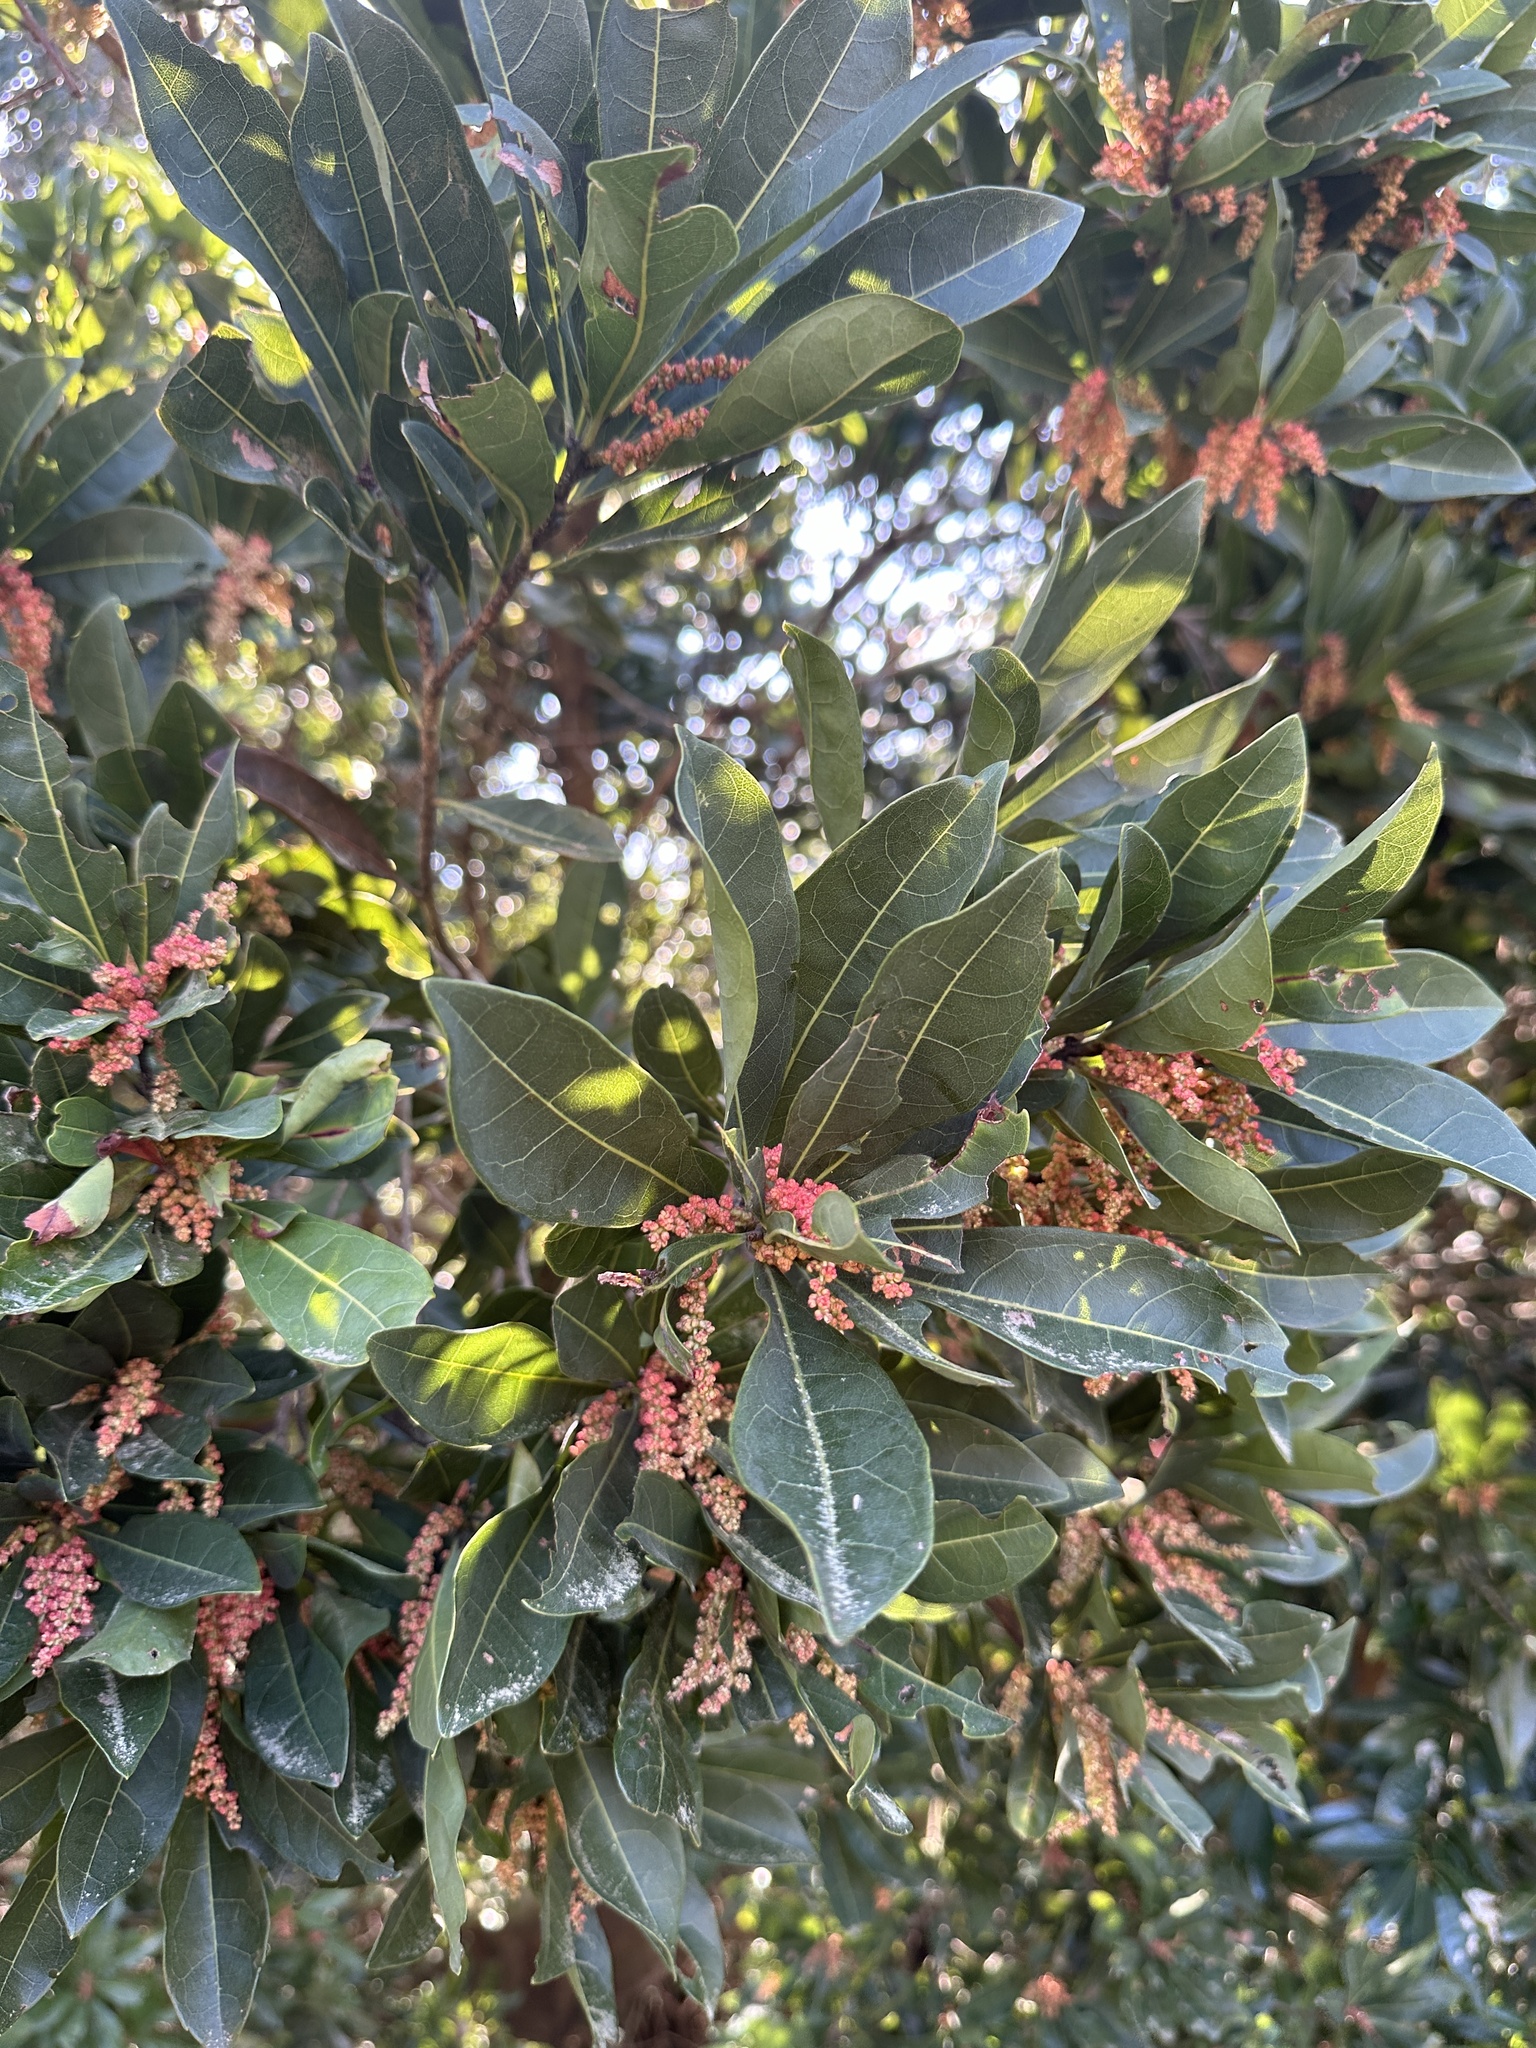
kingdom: Plantae
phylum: Tracheophyta
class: Magnoliopsida
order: Laurales
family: Lauraceae
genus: Machilus
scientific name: Machilus thunbergii
